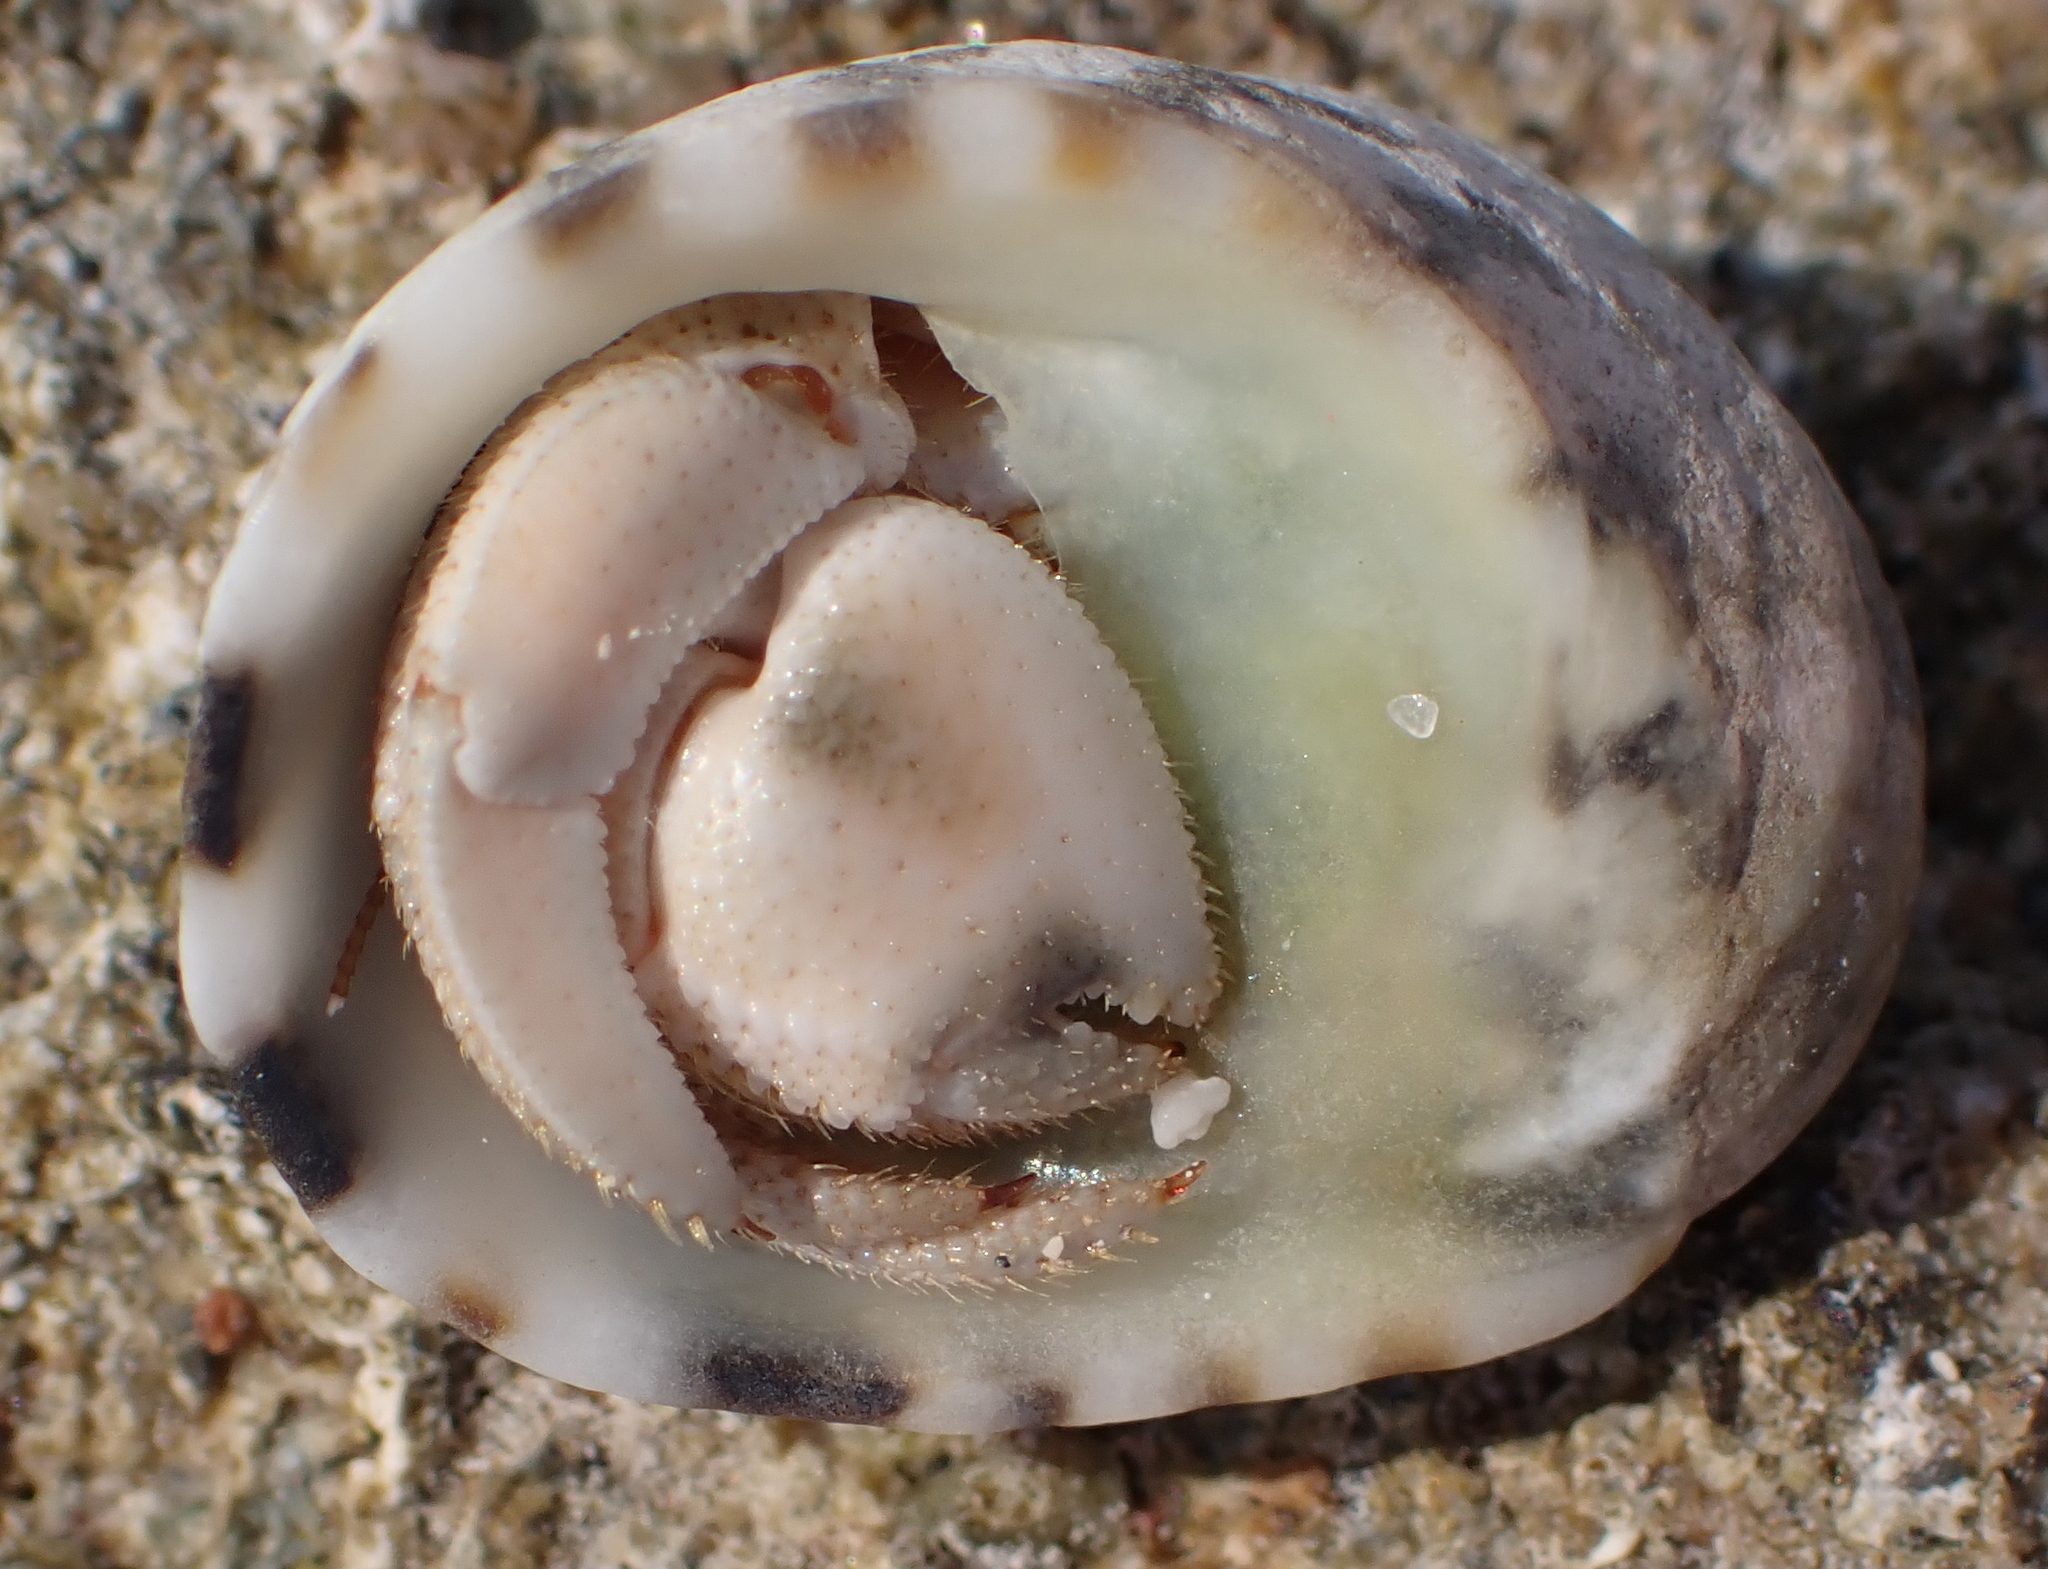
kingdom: Animalia
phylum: Arthropoda
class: Malacostraca
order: Decapoda
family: Coenobitidae
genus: Coenobita
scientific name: Coenobita scaevola
